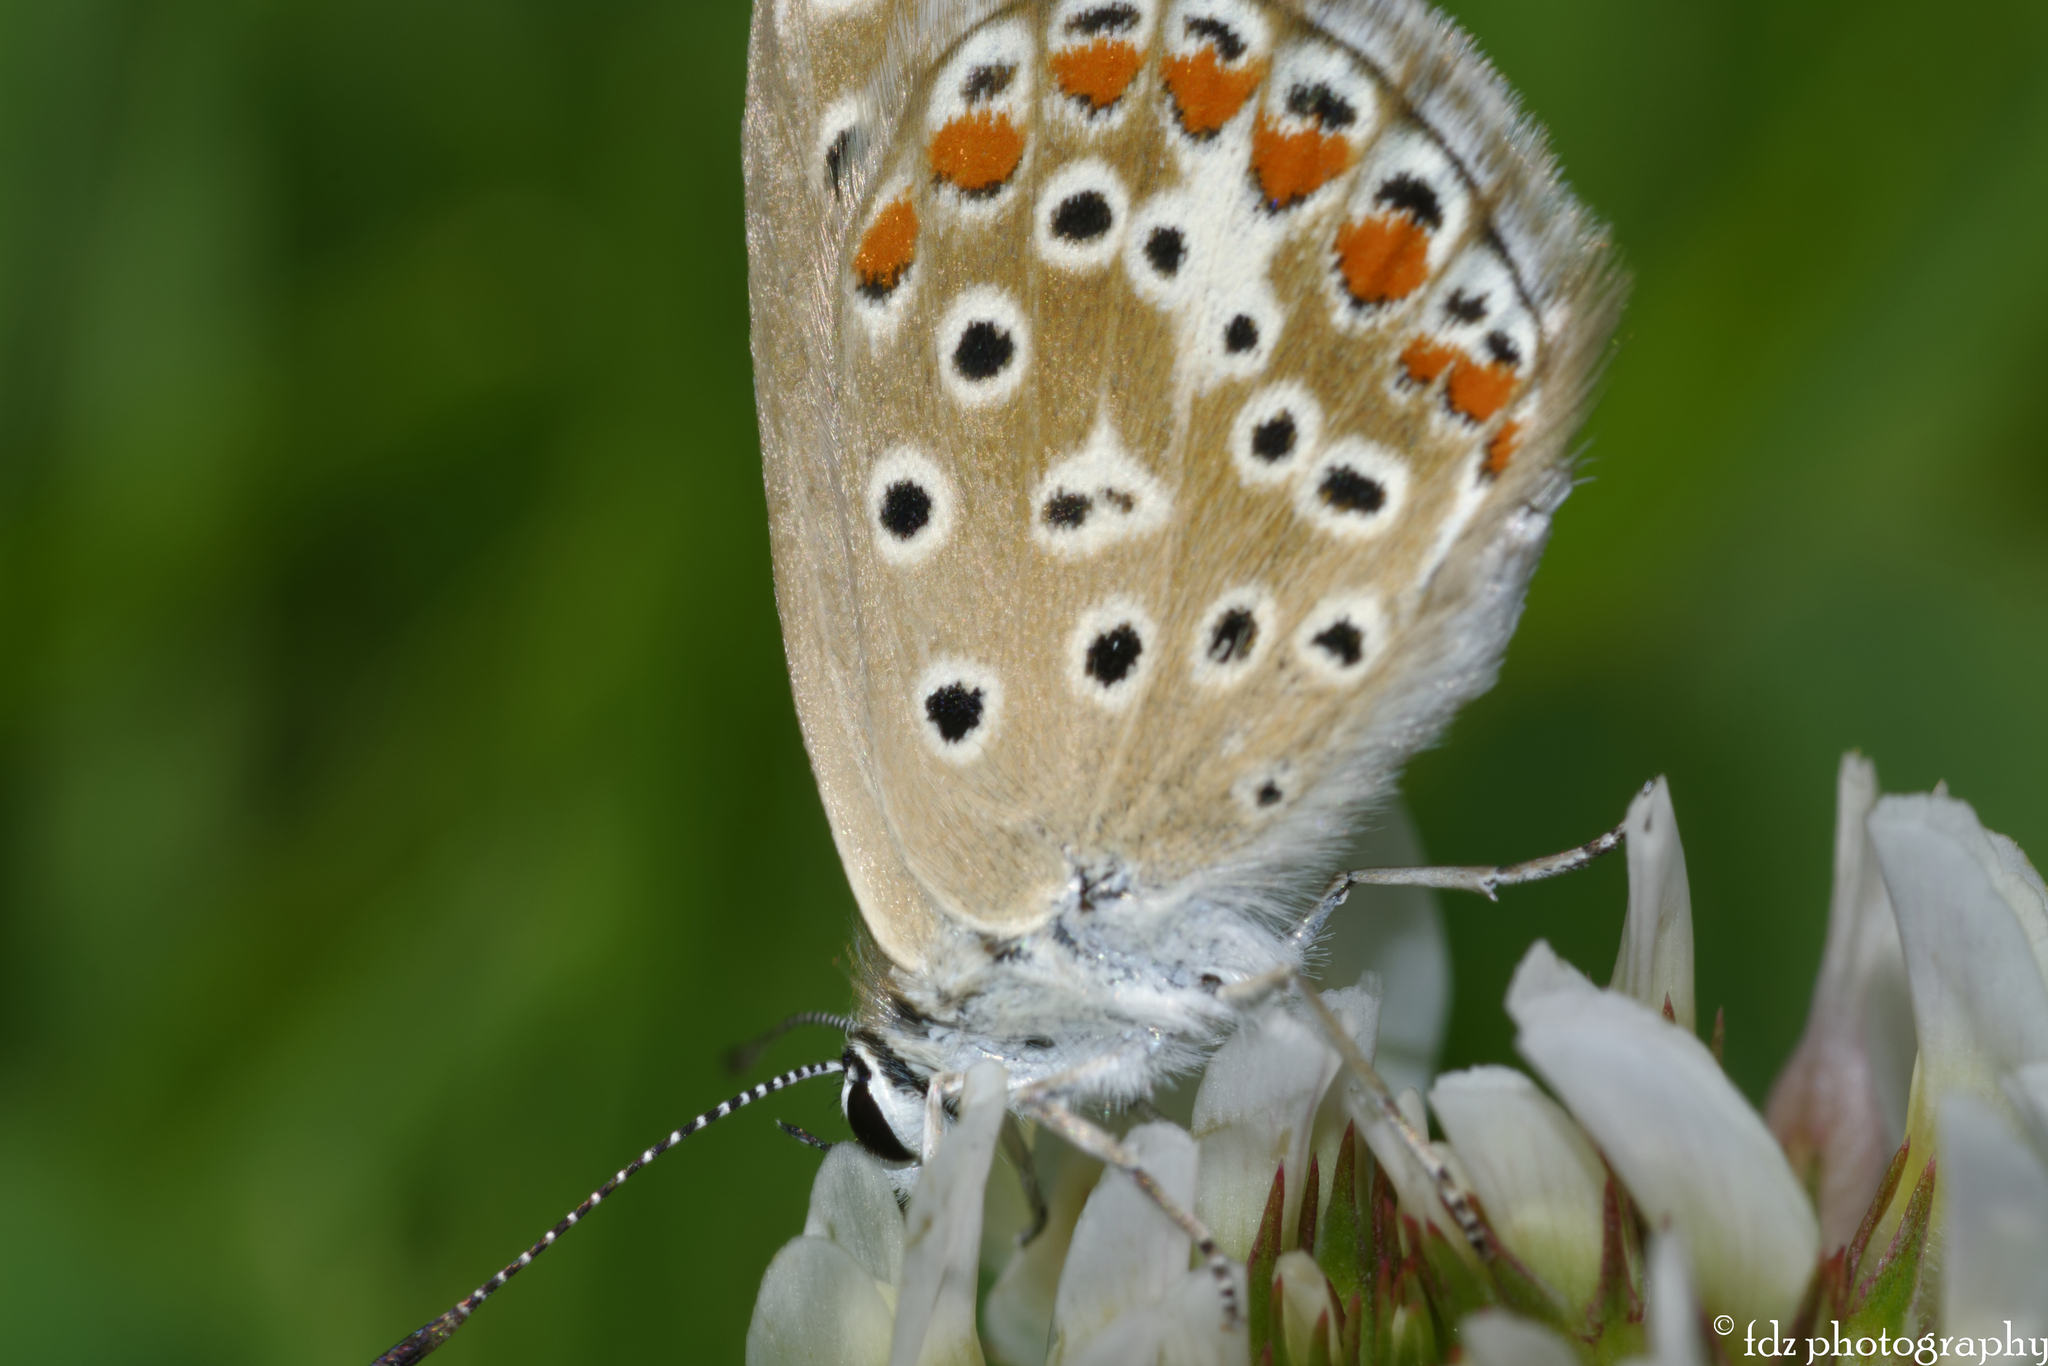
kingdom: Animalia
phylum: Arthropoda
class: Insecta
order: Lepidoptera
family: Lycaenidae
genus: Polyommatus
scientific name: Polyommatus celina
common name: Austaut's blue
